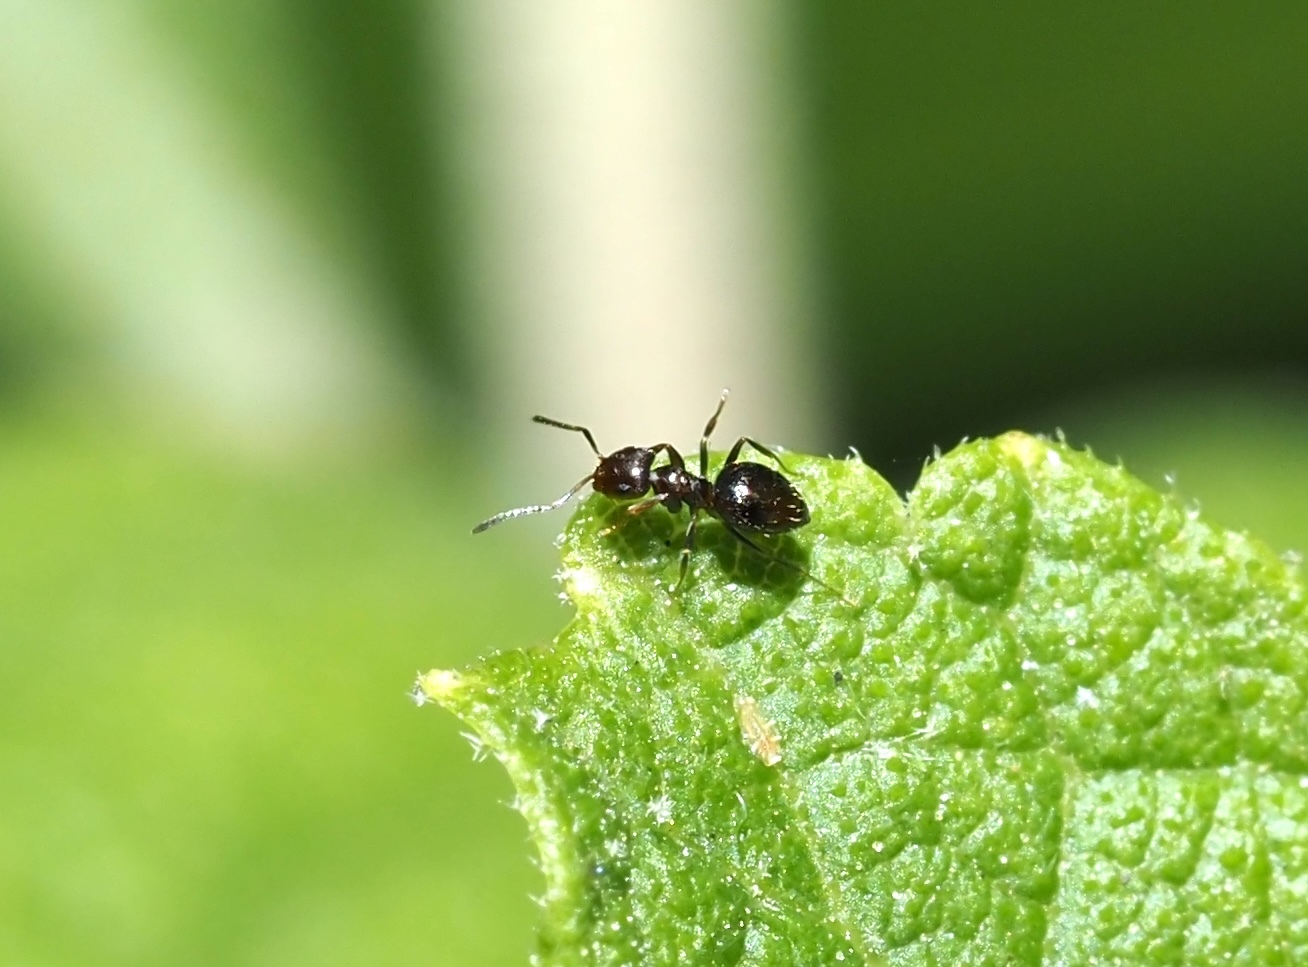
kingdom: Animalia
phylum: Arthropoda
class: Insecta
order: Hymenoptera
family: Formicidae
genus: Brachymyrmex
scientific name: Brachymyrmex patagonicus
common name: Dark rover ant
